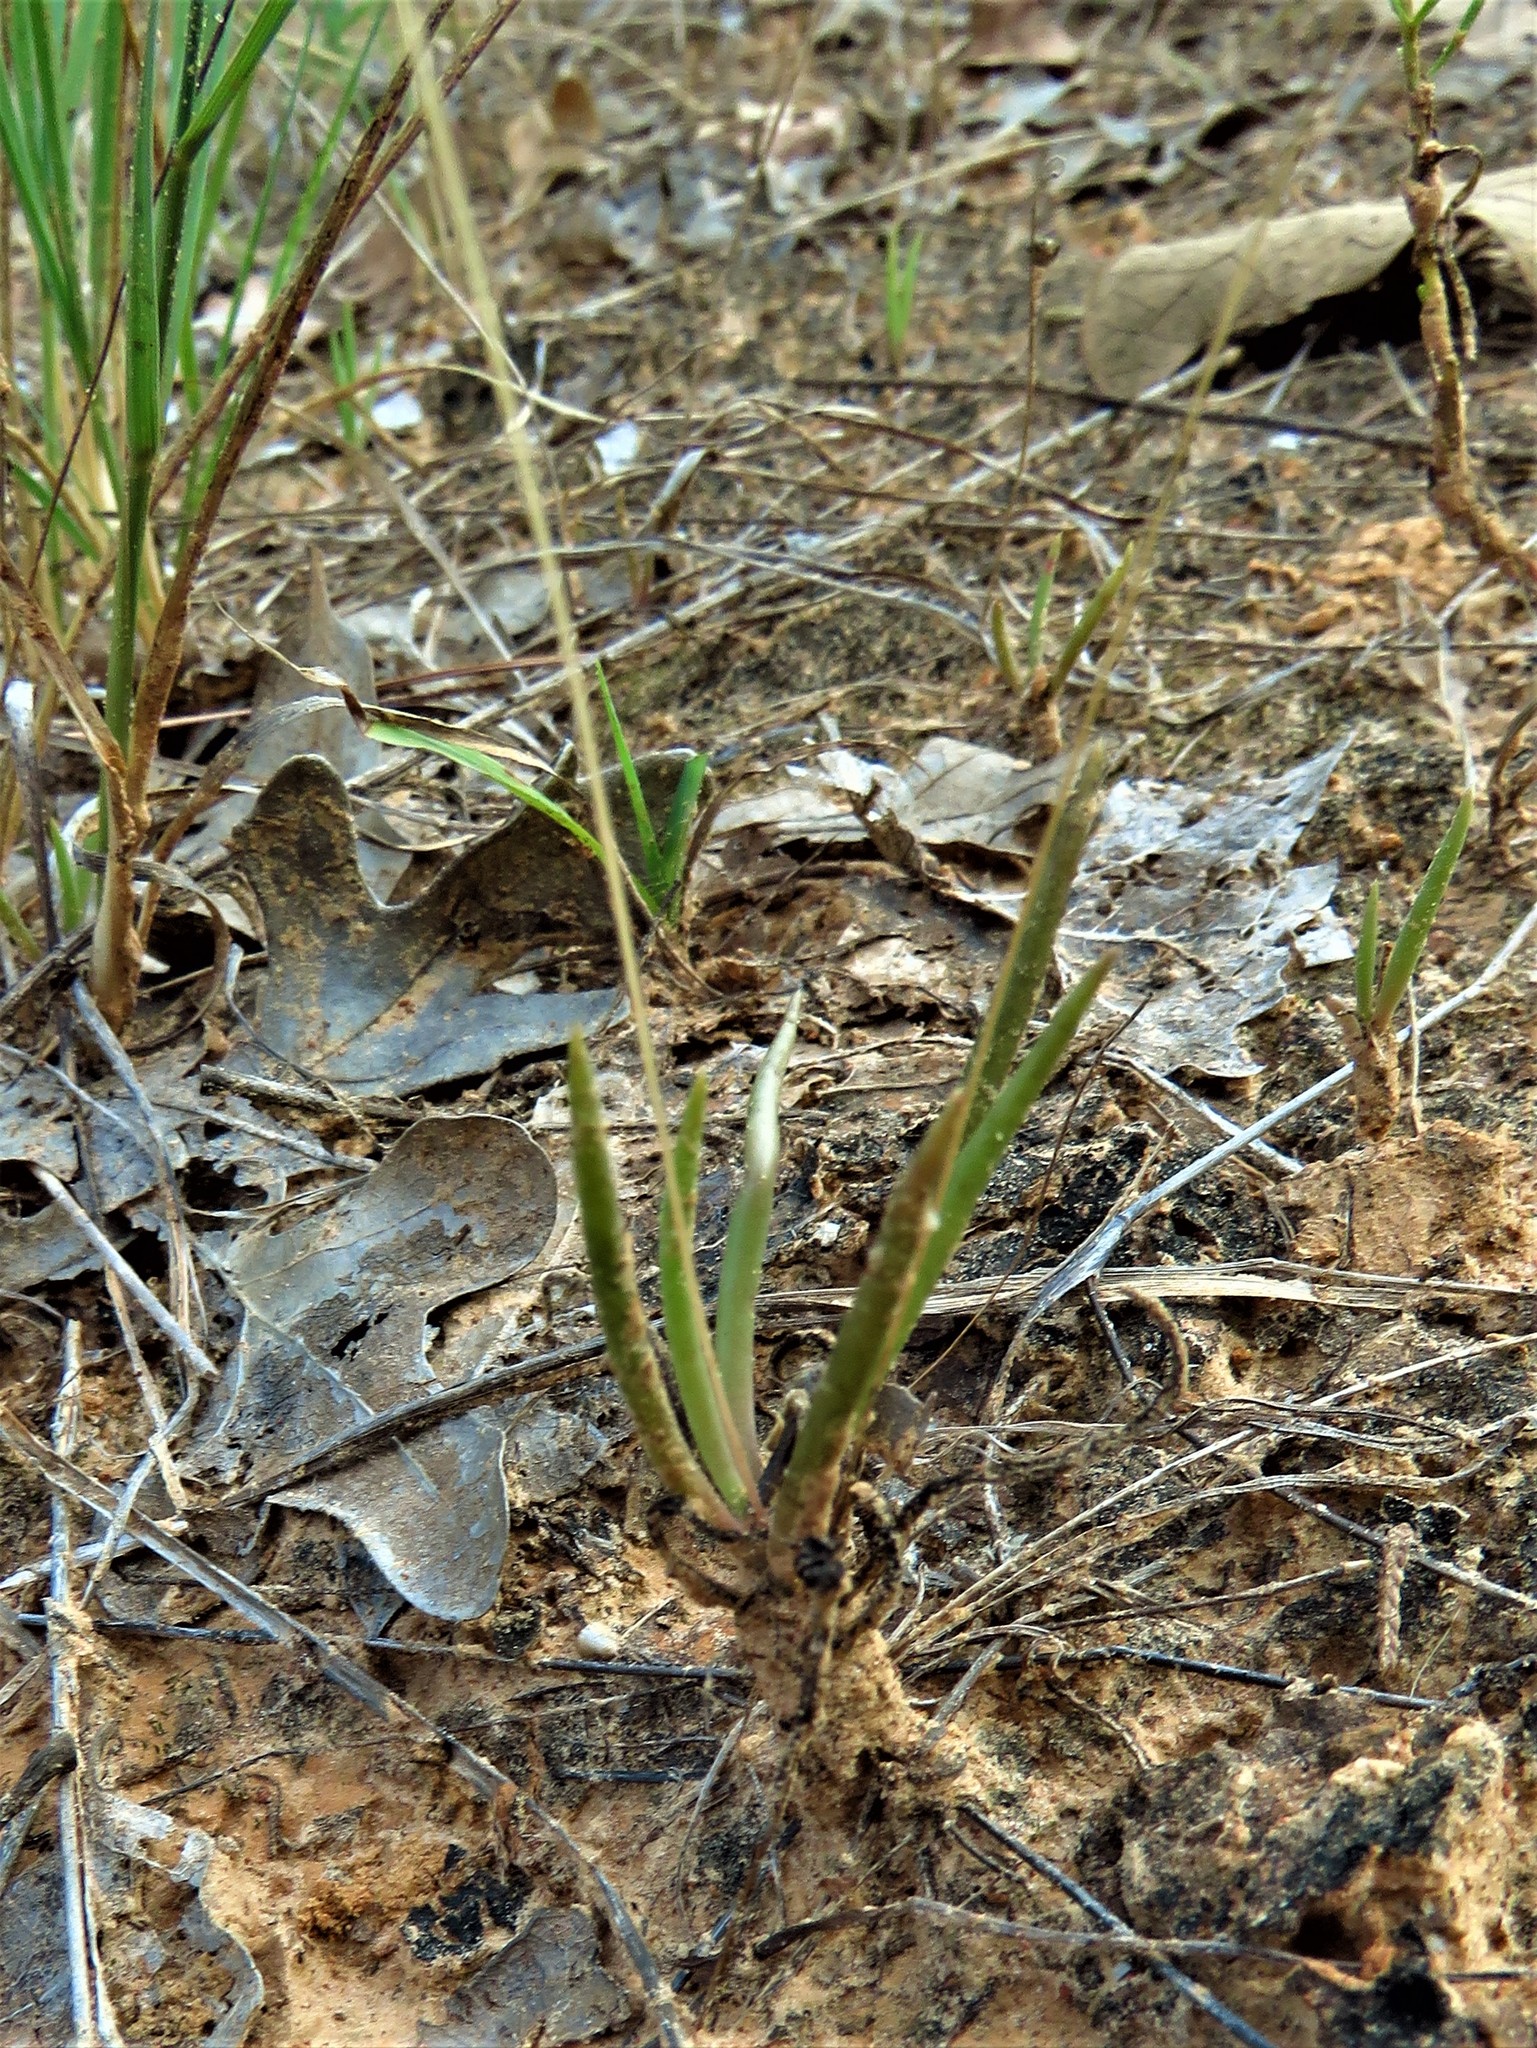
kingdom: Plantae
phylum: Tracheophyta
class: Magnoliopsida
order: Caryophyllales
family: Montiaceae
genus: Phemeranthus
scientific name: Phemeranthus parviflorus
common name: Sunbright
